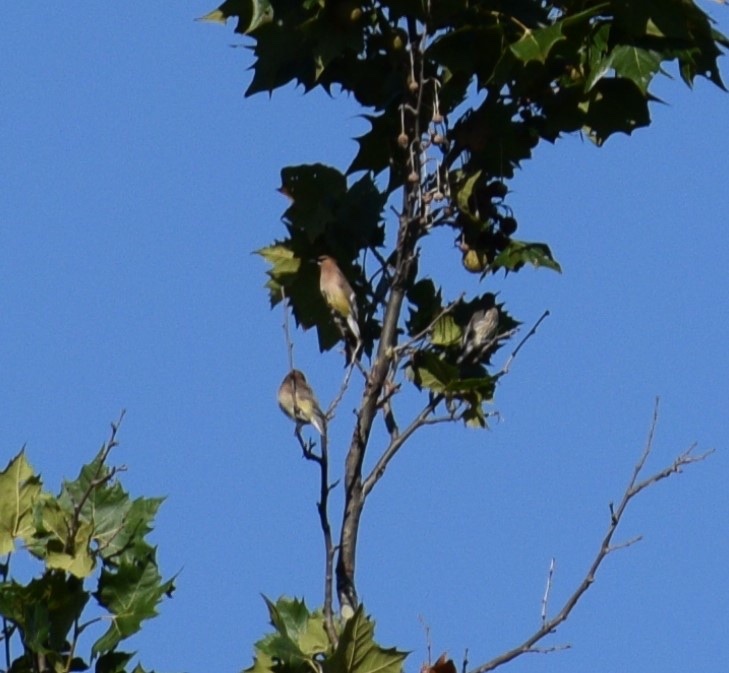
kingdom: Animalia
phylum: Chordata
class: Aves
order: Passeriformes
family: Bombycillidae
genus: Bombycilla
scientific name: Bombycilla cedrorum
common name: Cedar waxwing
